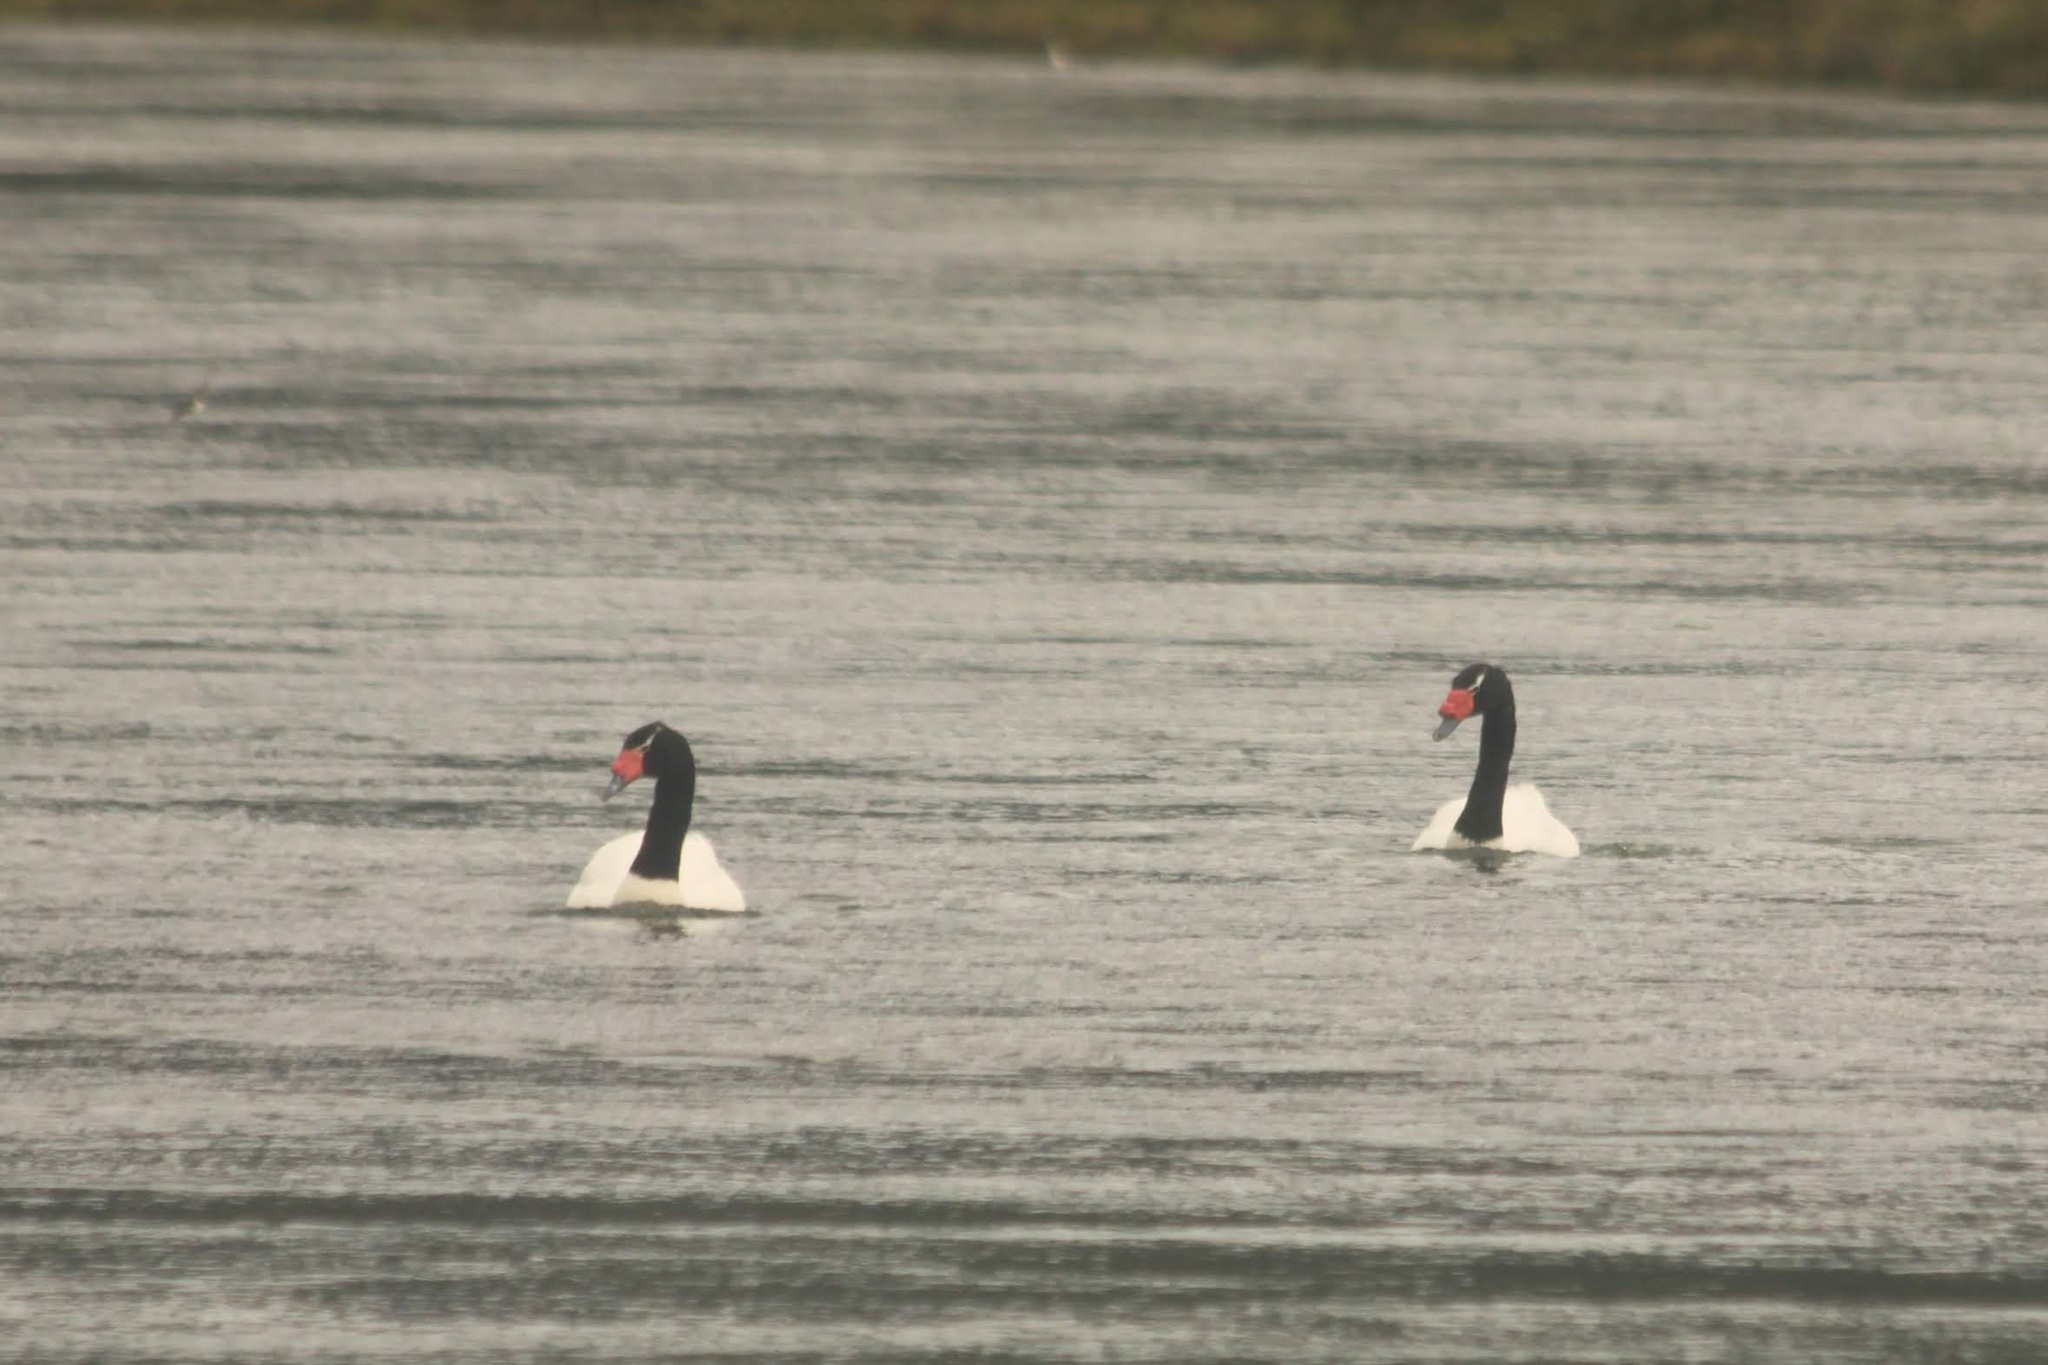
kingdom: Animalia
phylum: Chordata
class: Aves
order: Anseriformes
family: Anatidae
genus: Cygnus
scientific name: Cygnus melancoryphus
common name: Black-necked swan
